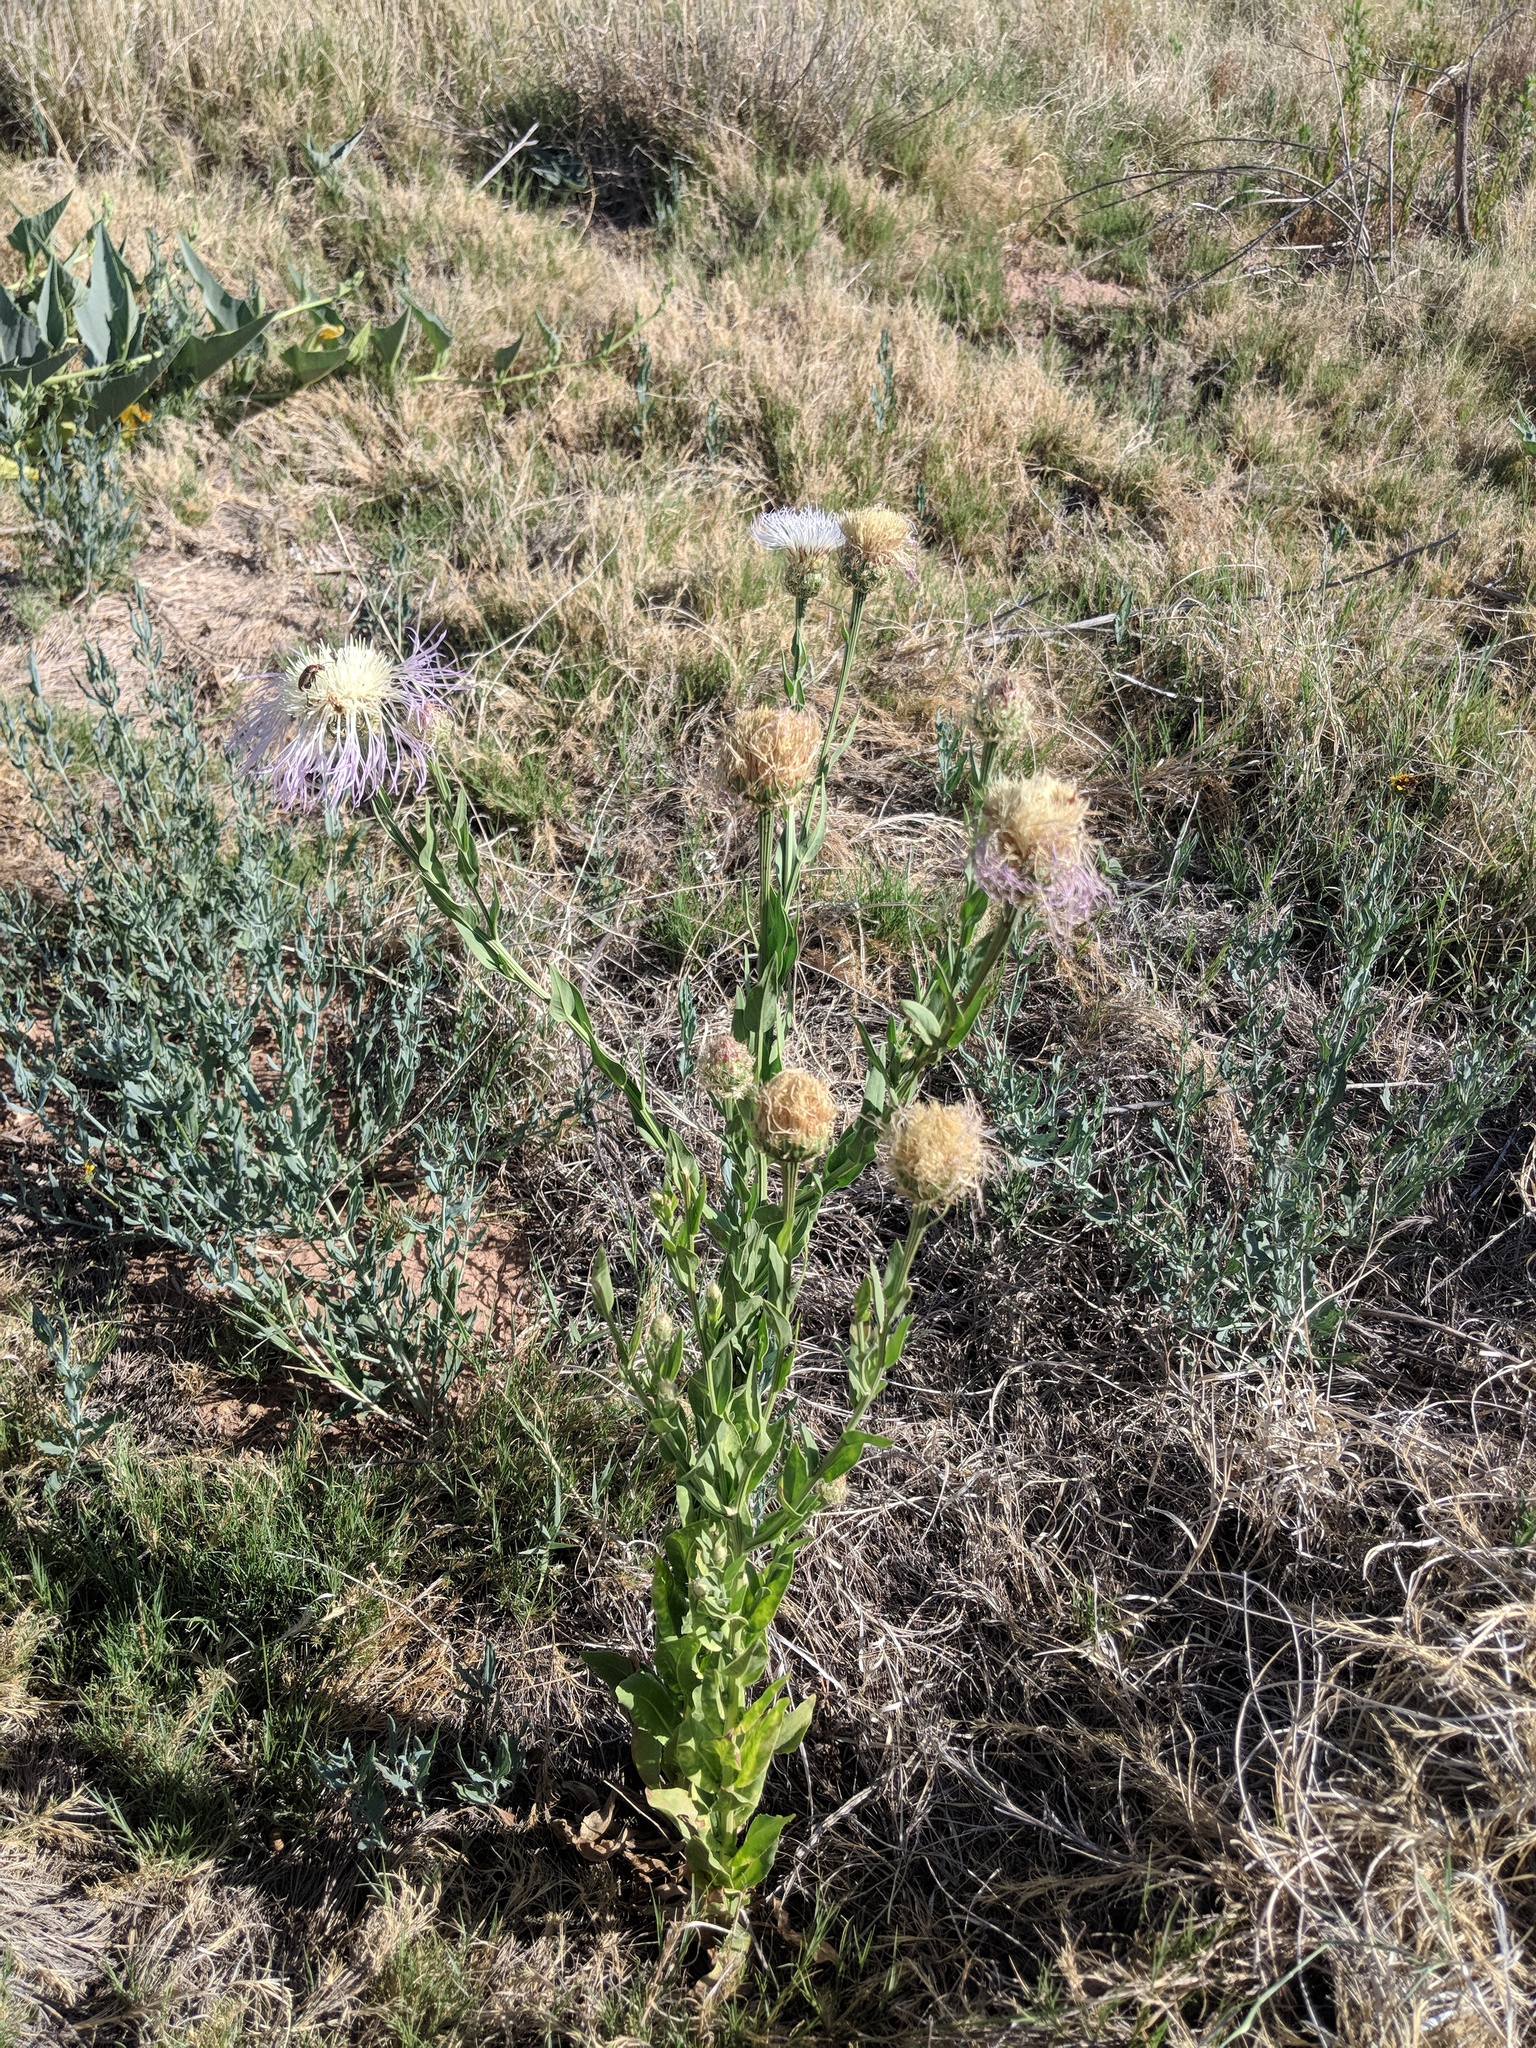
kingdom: Plantae
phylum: Tracheophyta
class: Magnoliopsida
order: Asterales
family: Asteraceae
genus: Plectocephalus
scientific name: Plectocephalus americanus
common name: American basket-flower
